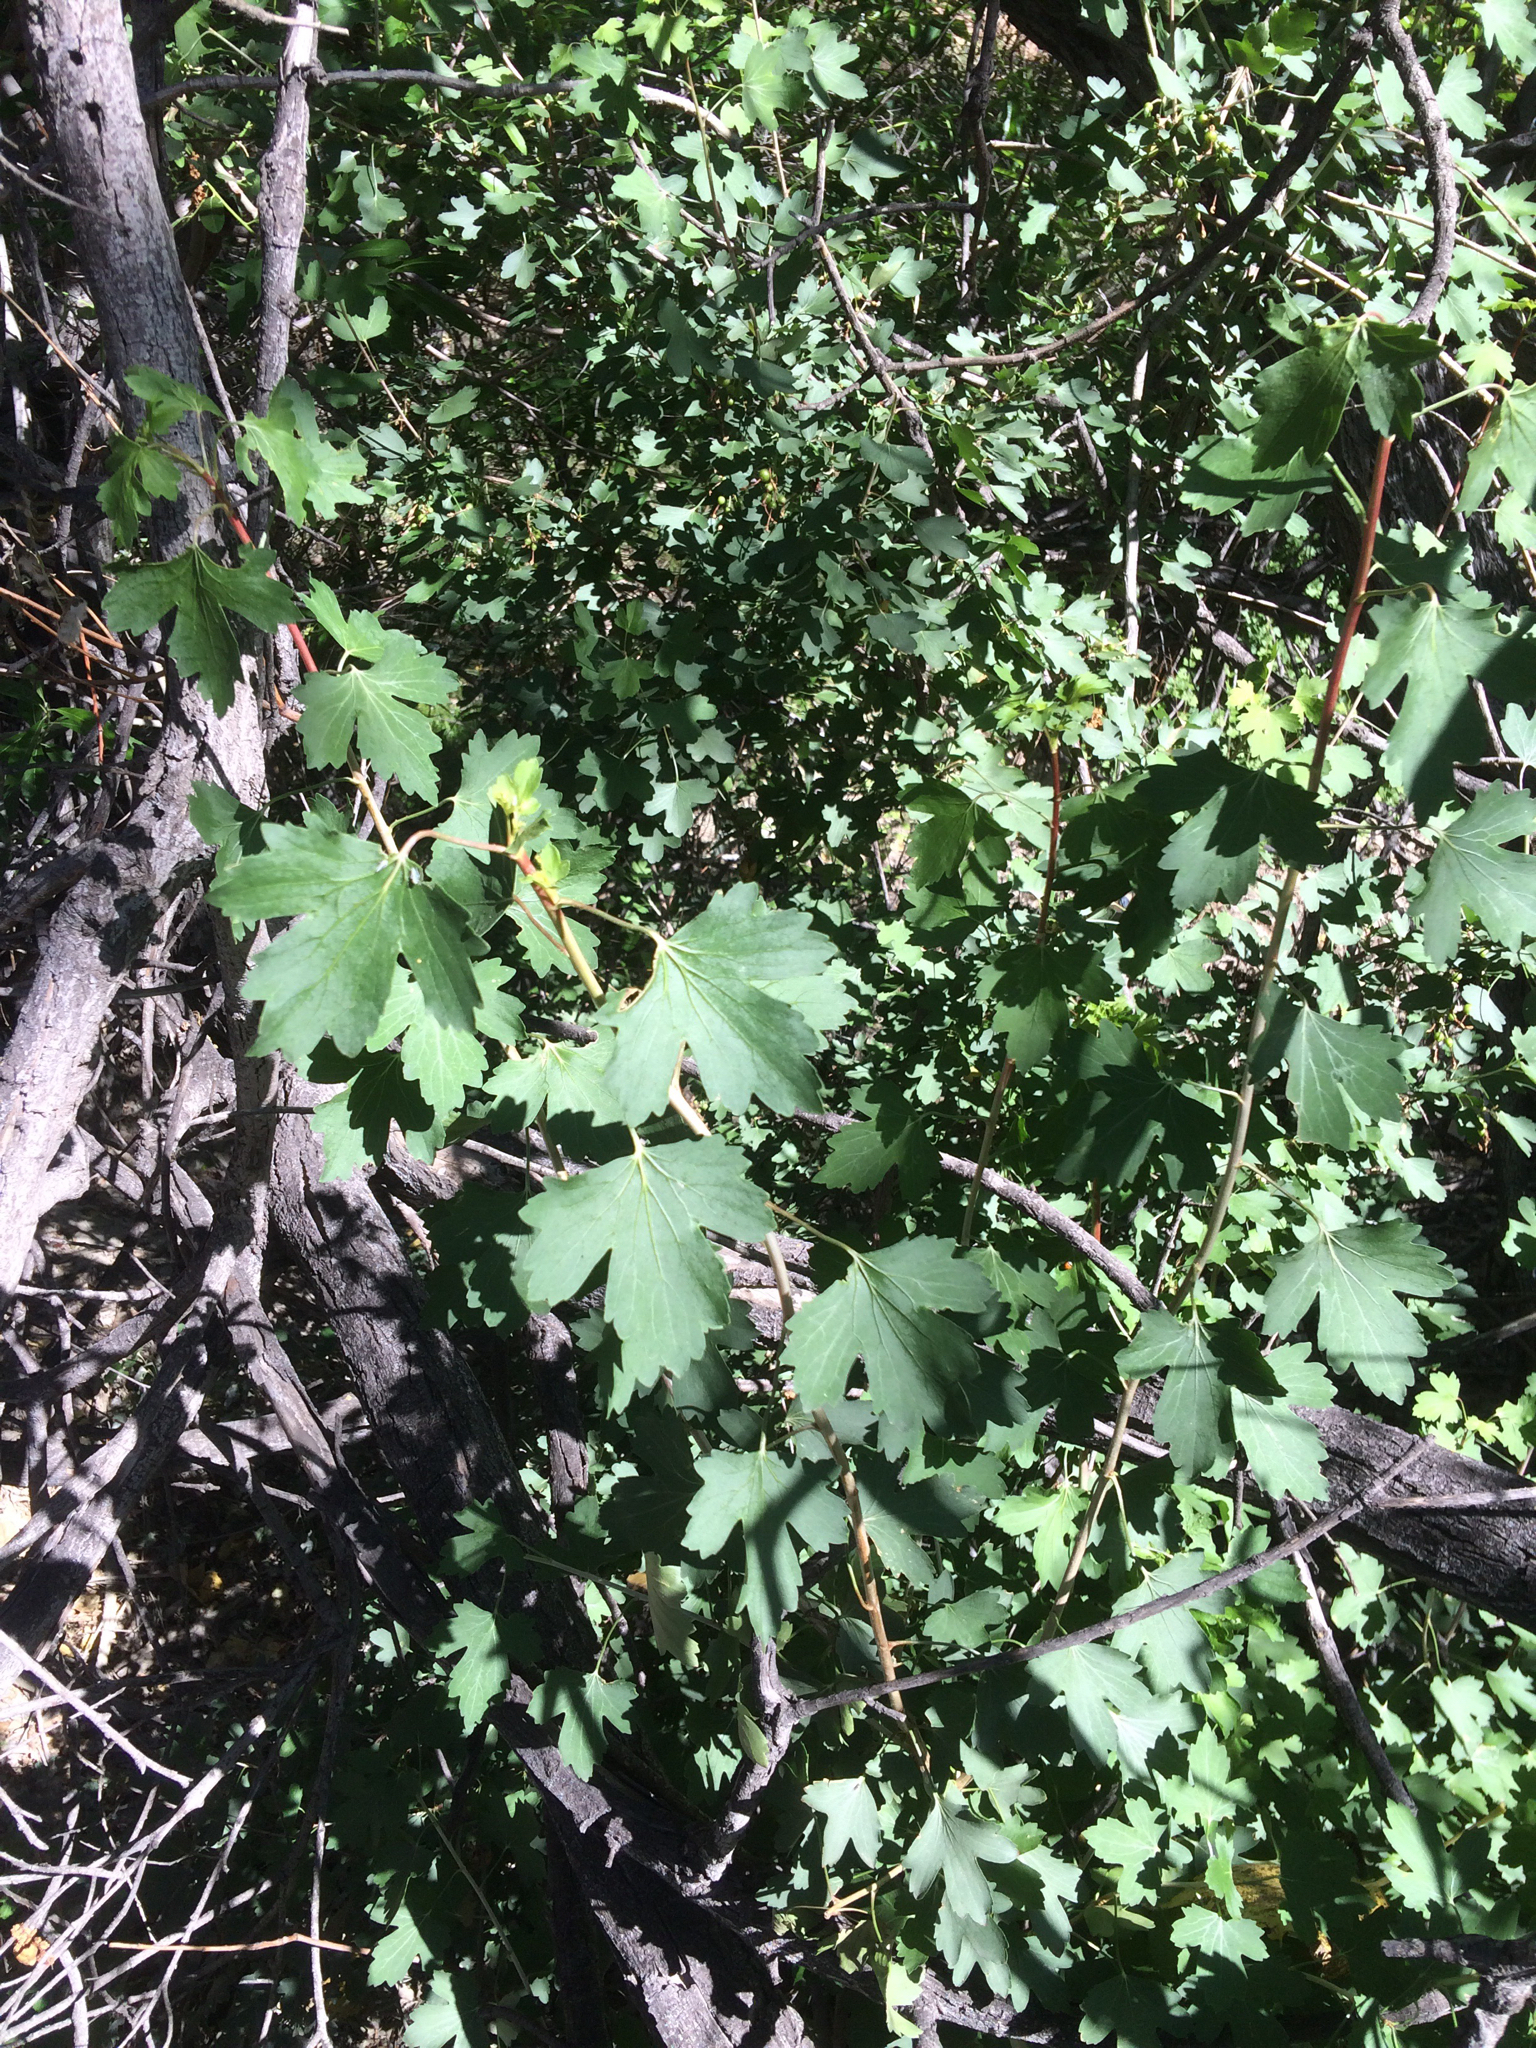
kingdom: Plantae
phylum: Tracheophyta
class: Magnoliopsida
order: Saxifragales
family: Grossulariaceae
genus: Ribes
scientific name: Ribes aureum
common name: Golden currant
